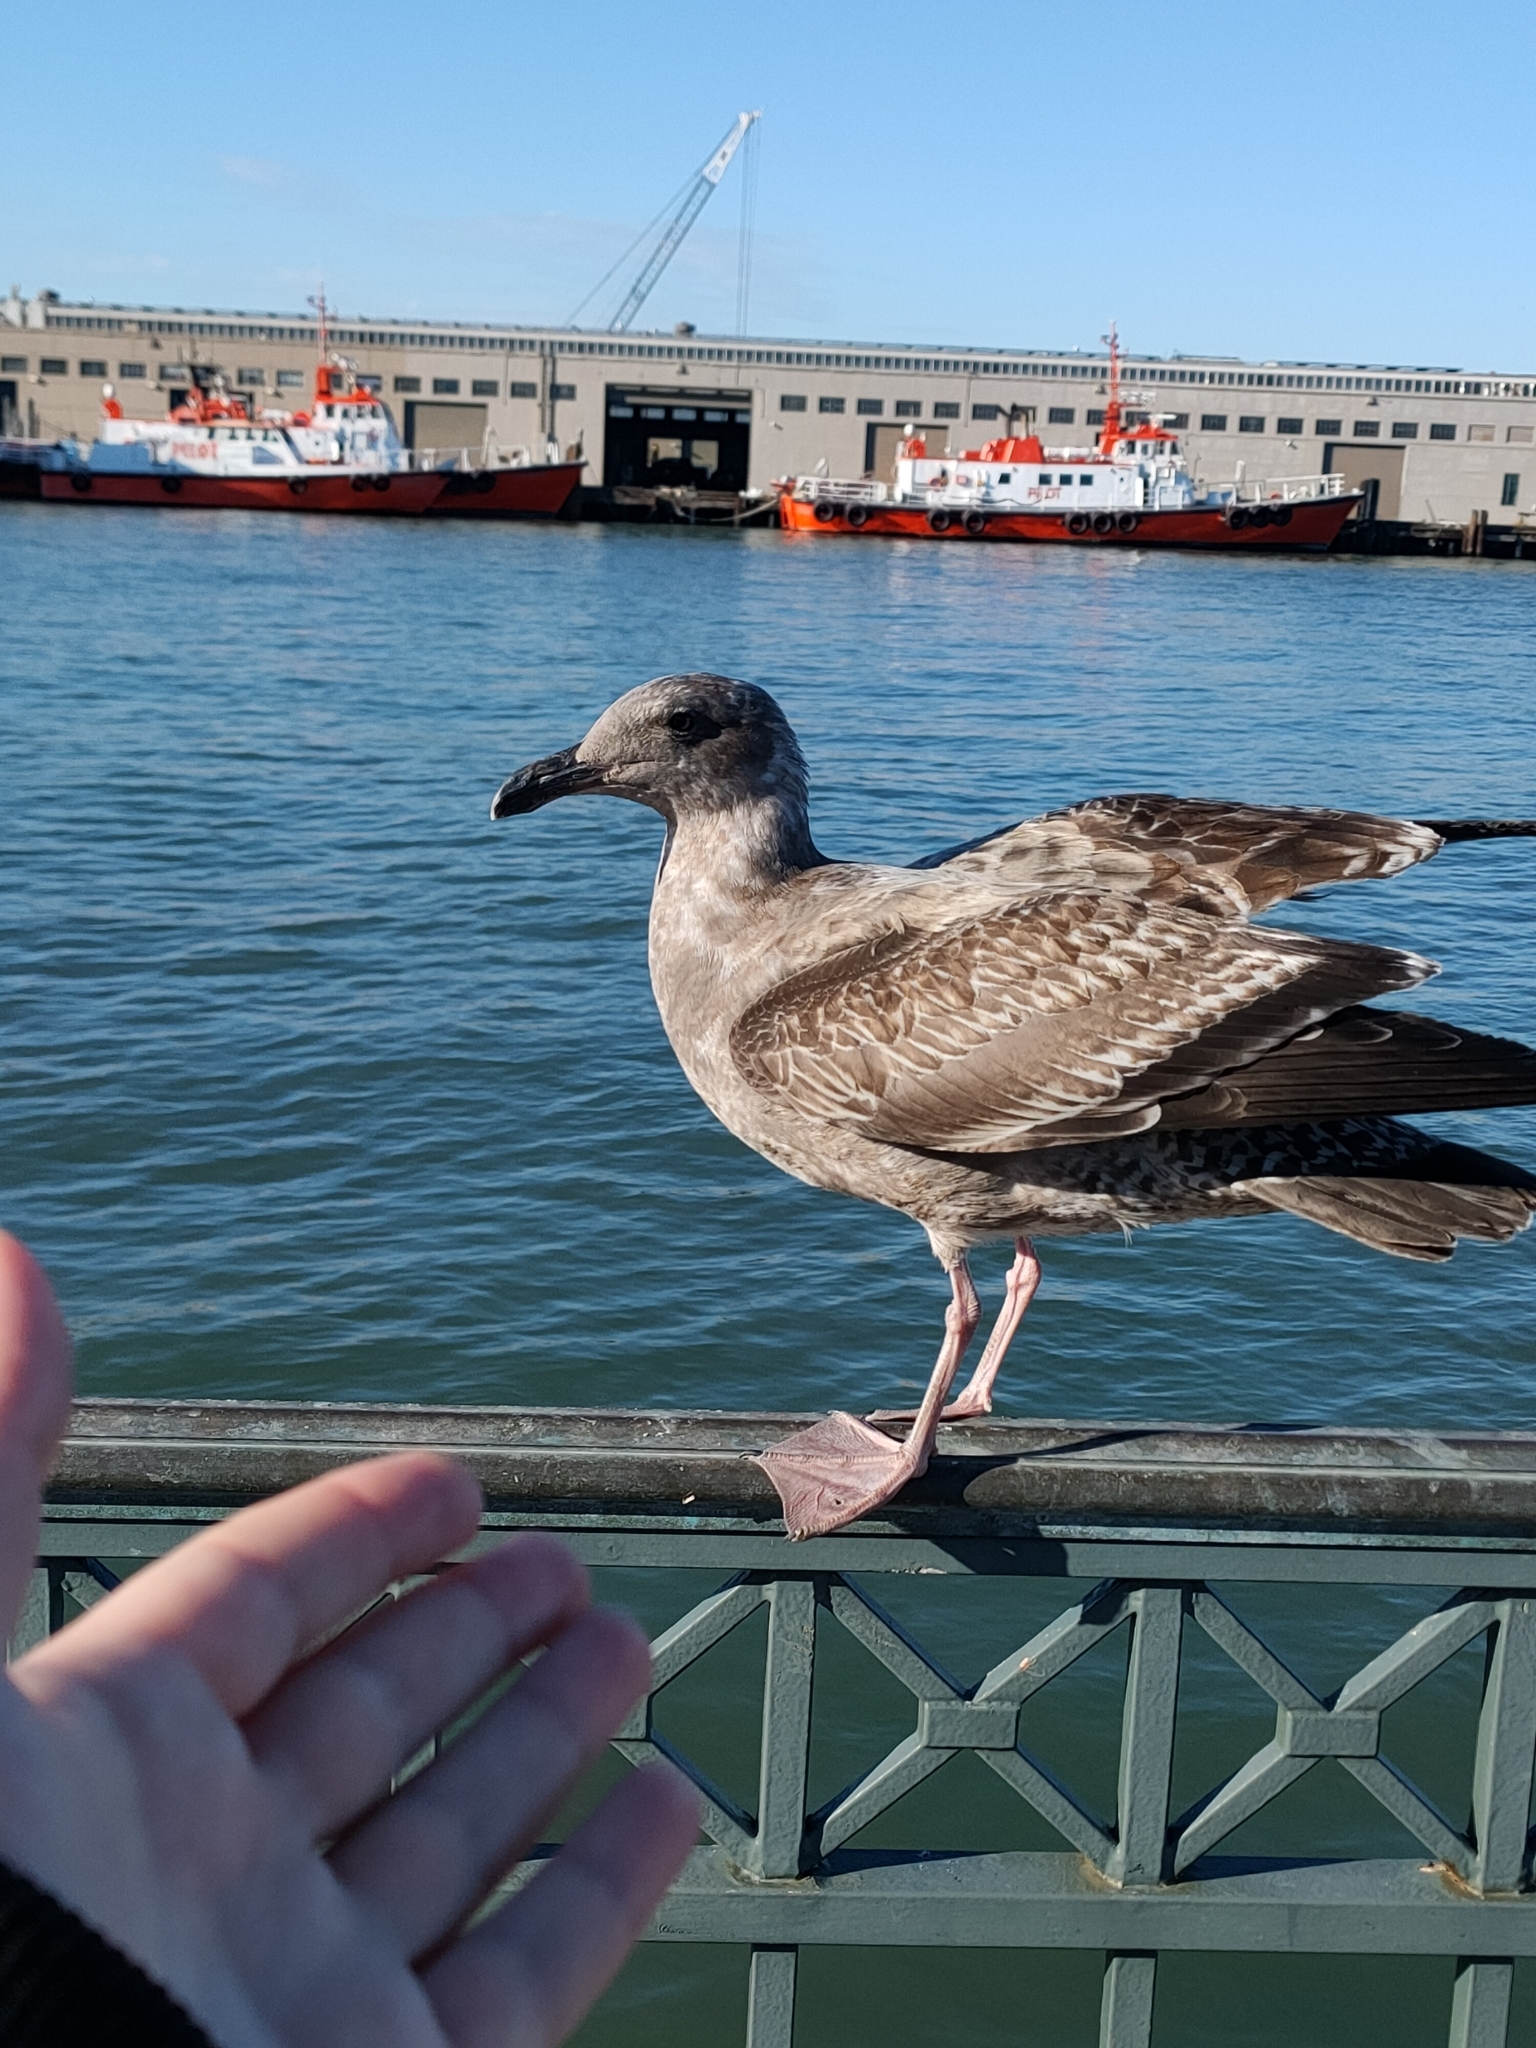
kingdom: Animalia
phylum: Chordata
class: Aves
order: Charadriiformes
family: Laridae
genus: Larus
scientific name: Larus occidentalis
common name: Western gull
